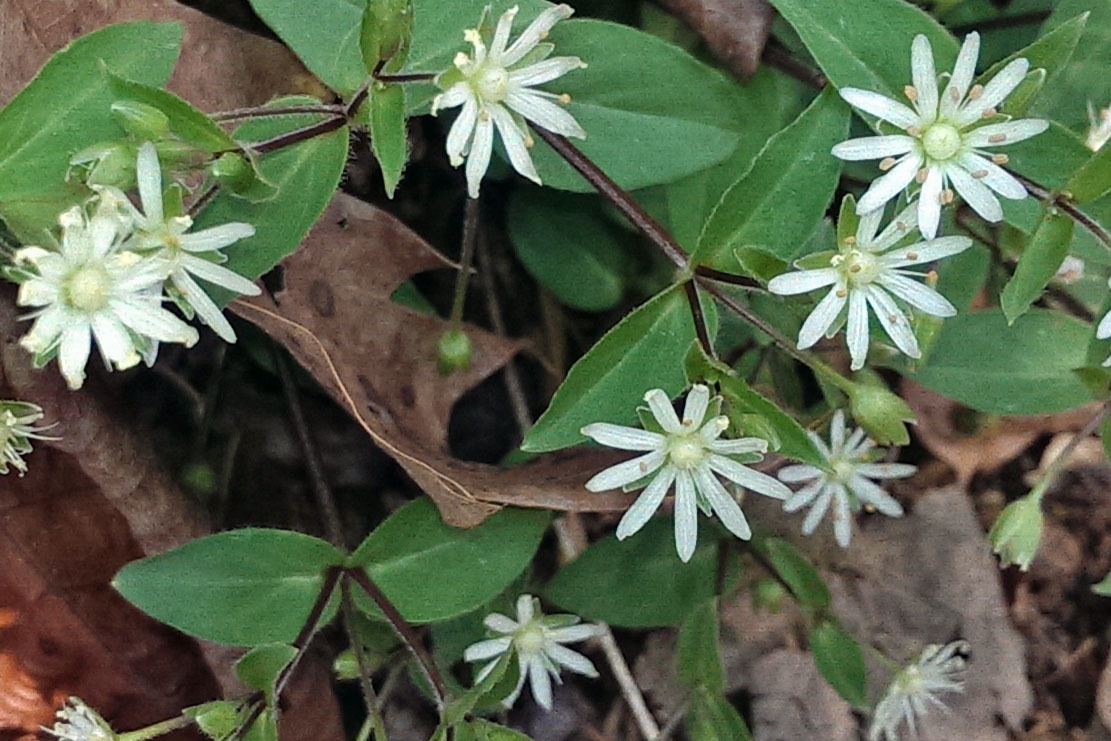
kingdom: Plantae
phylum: Tracheophyta
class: Magnoliopsida
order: Caryophyllales
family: Caryophyllaceae
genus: Stellaria
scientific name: Stellaria pubera
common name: Star chickweed
